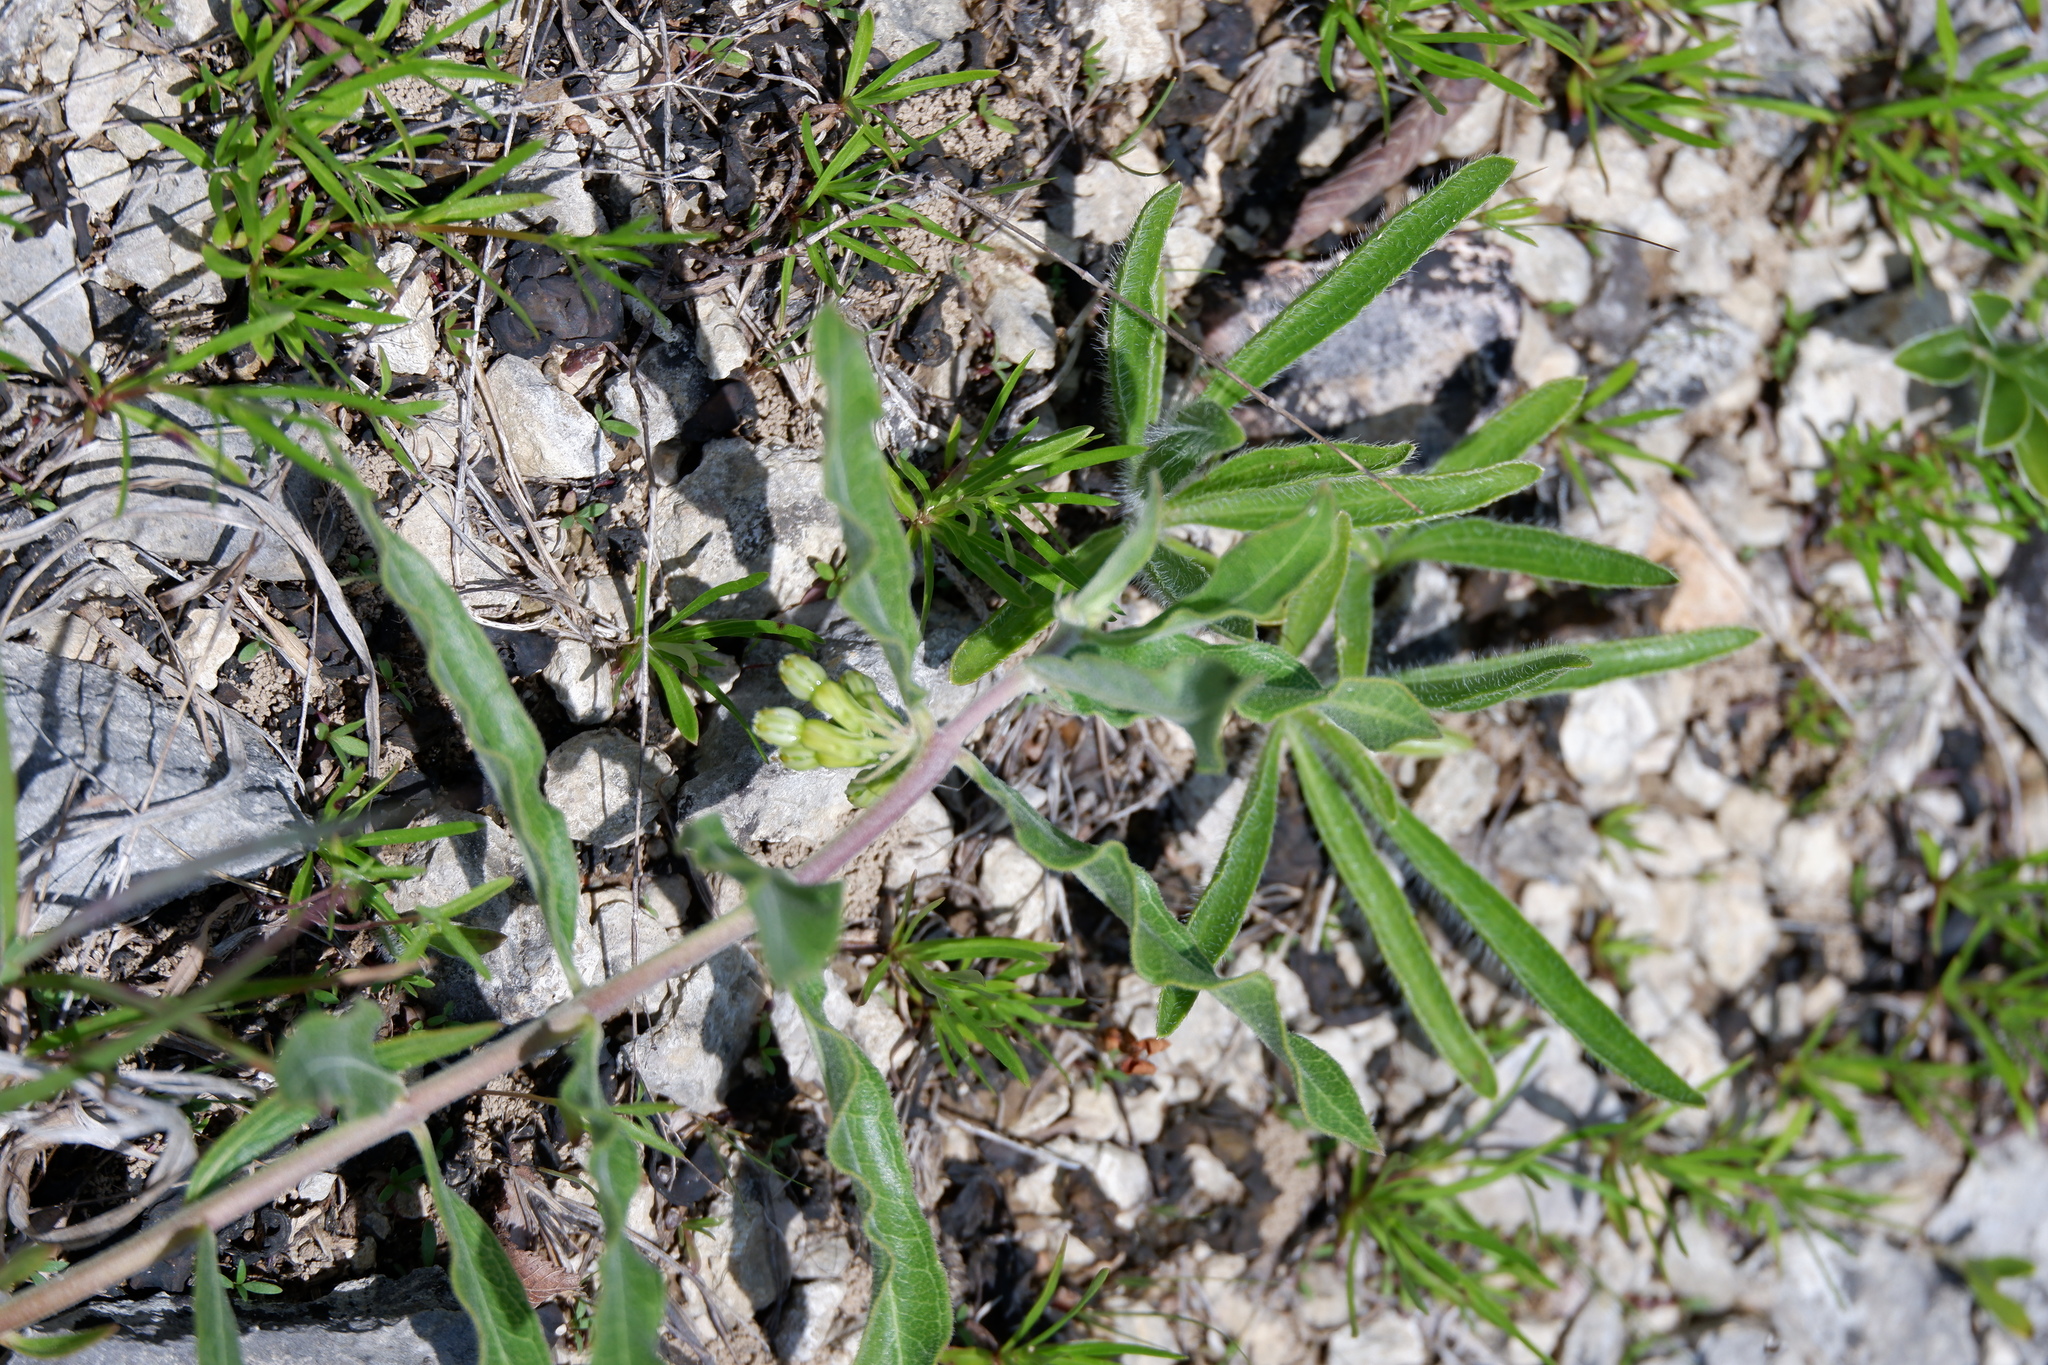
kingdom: Plantae
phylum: Tracheophyta
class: Magnoliopsida
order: Gentianales
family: Apocynaceae
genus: Asclepias
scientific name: Asclepias viridiflora
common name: Green comet milkweed
